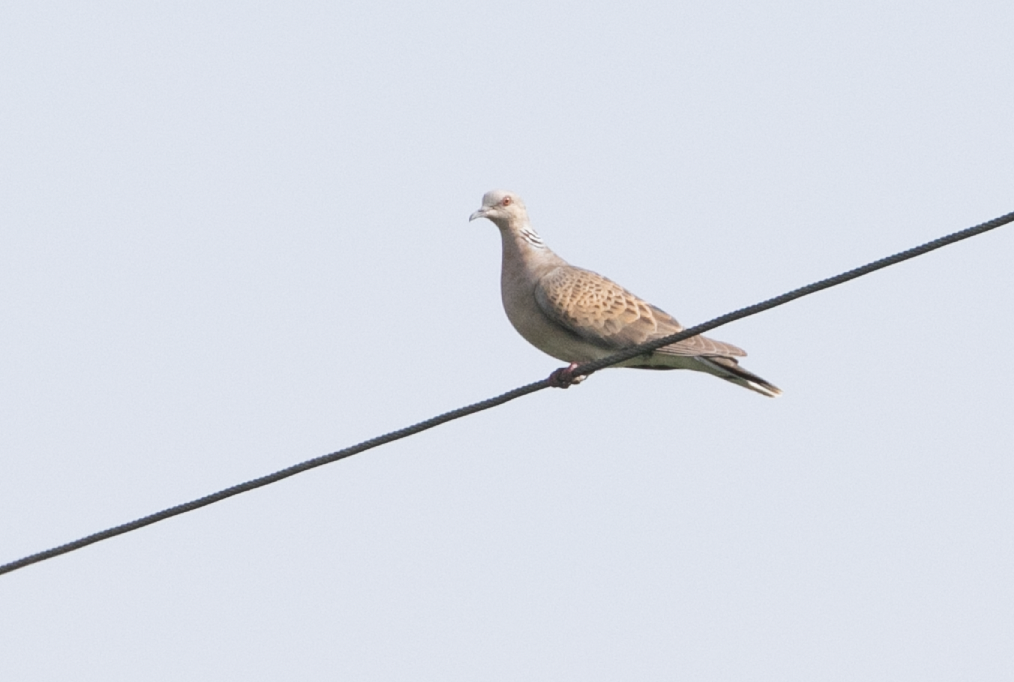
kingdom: Animalia
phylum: Chordata
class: Aves
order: Columbiformes
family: Columbidae
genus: Streptopelia
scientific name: Streptopelia turtur
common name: European turtle dove
